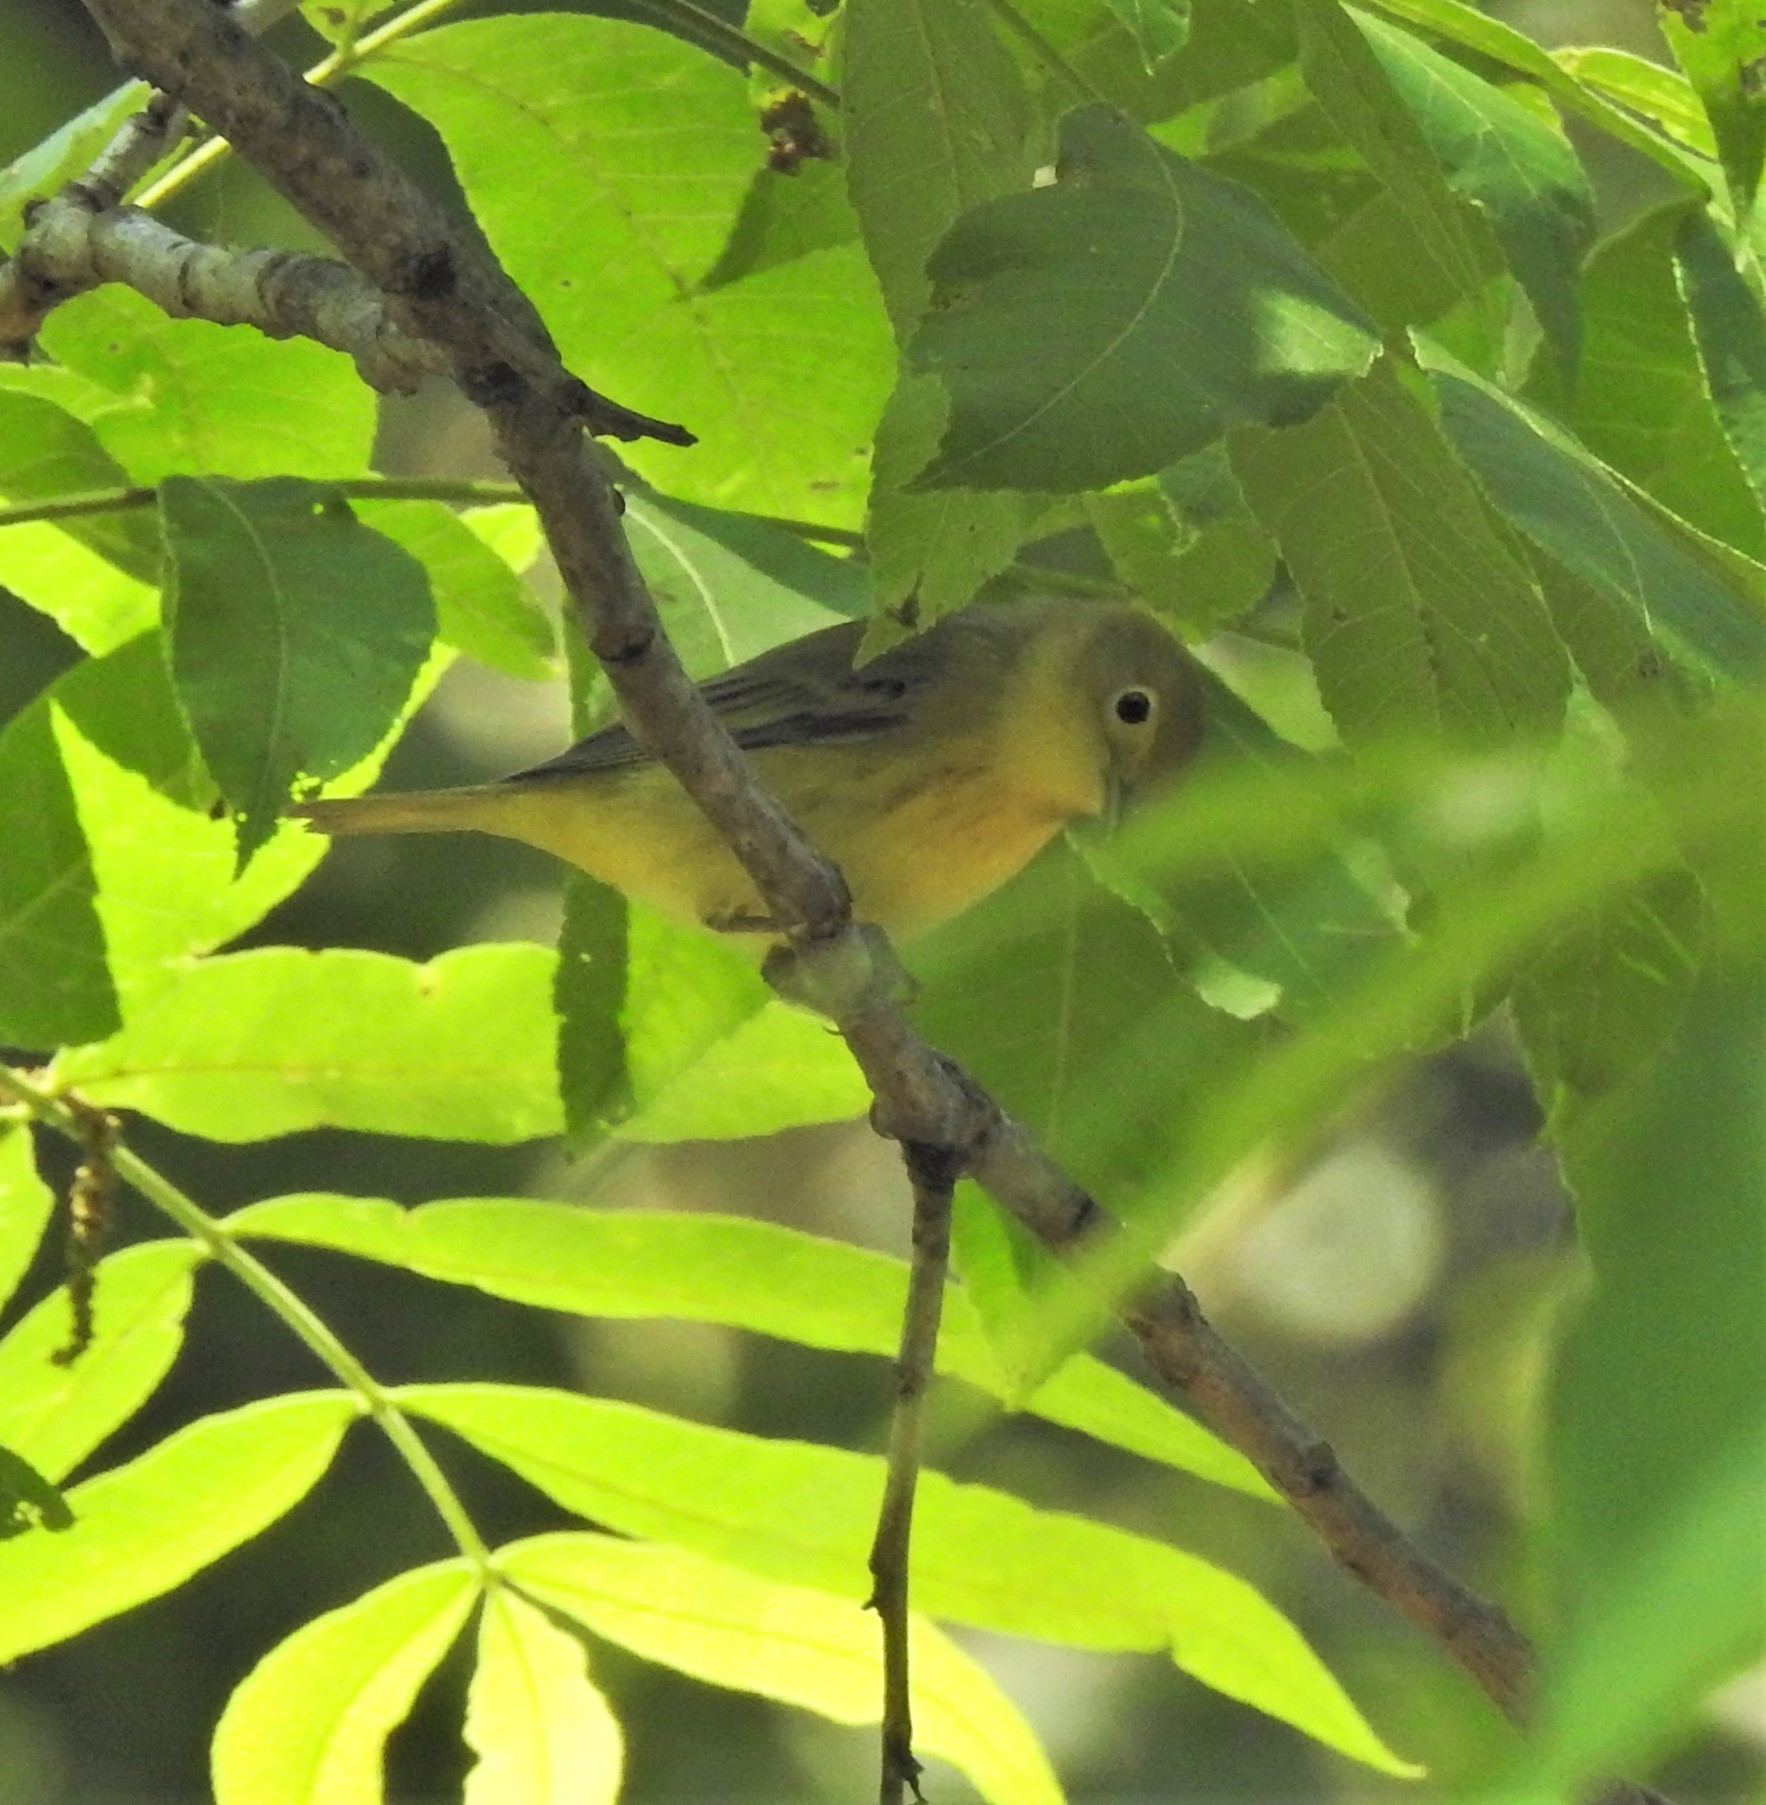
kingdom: Animalia
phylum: Chordata
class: Aves
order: Passeriformes
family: Parulidae
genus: Setophaga
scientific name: Setophaga petechia
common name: Yellow warbler
